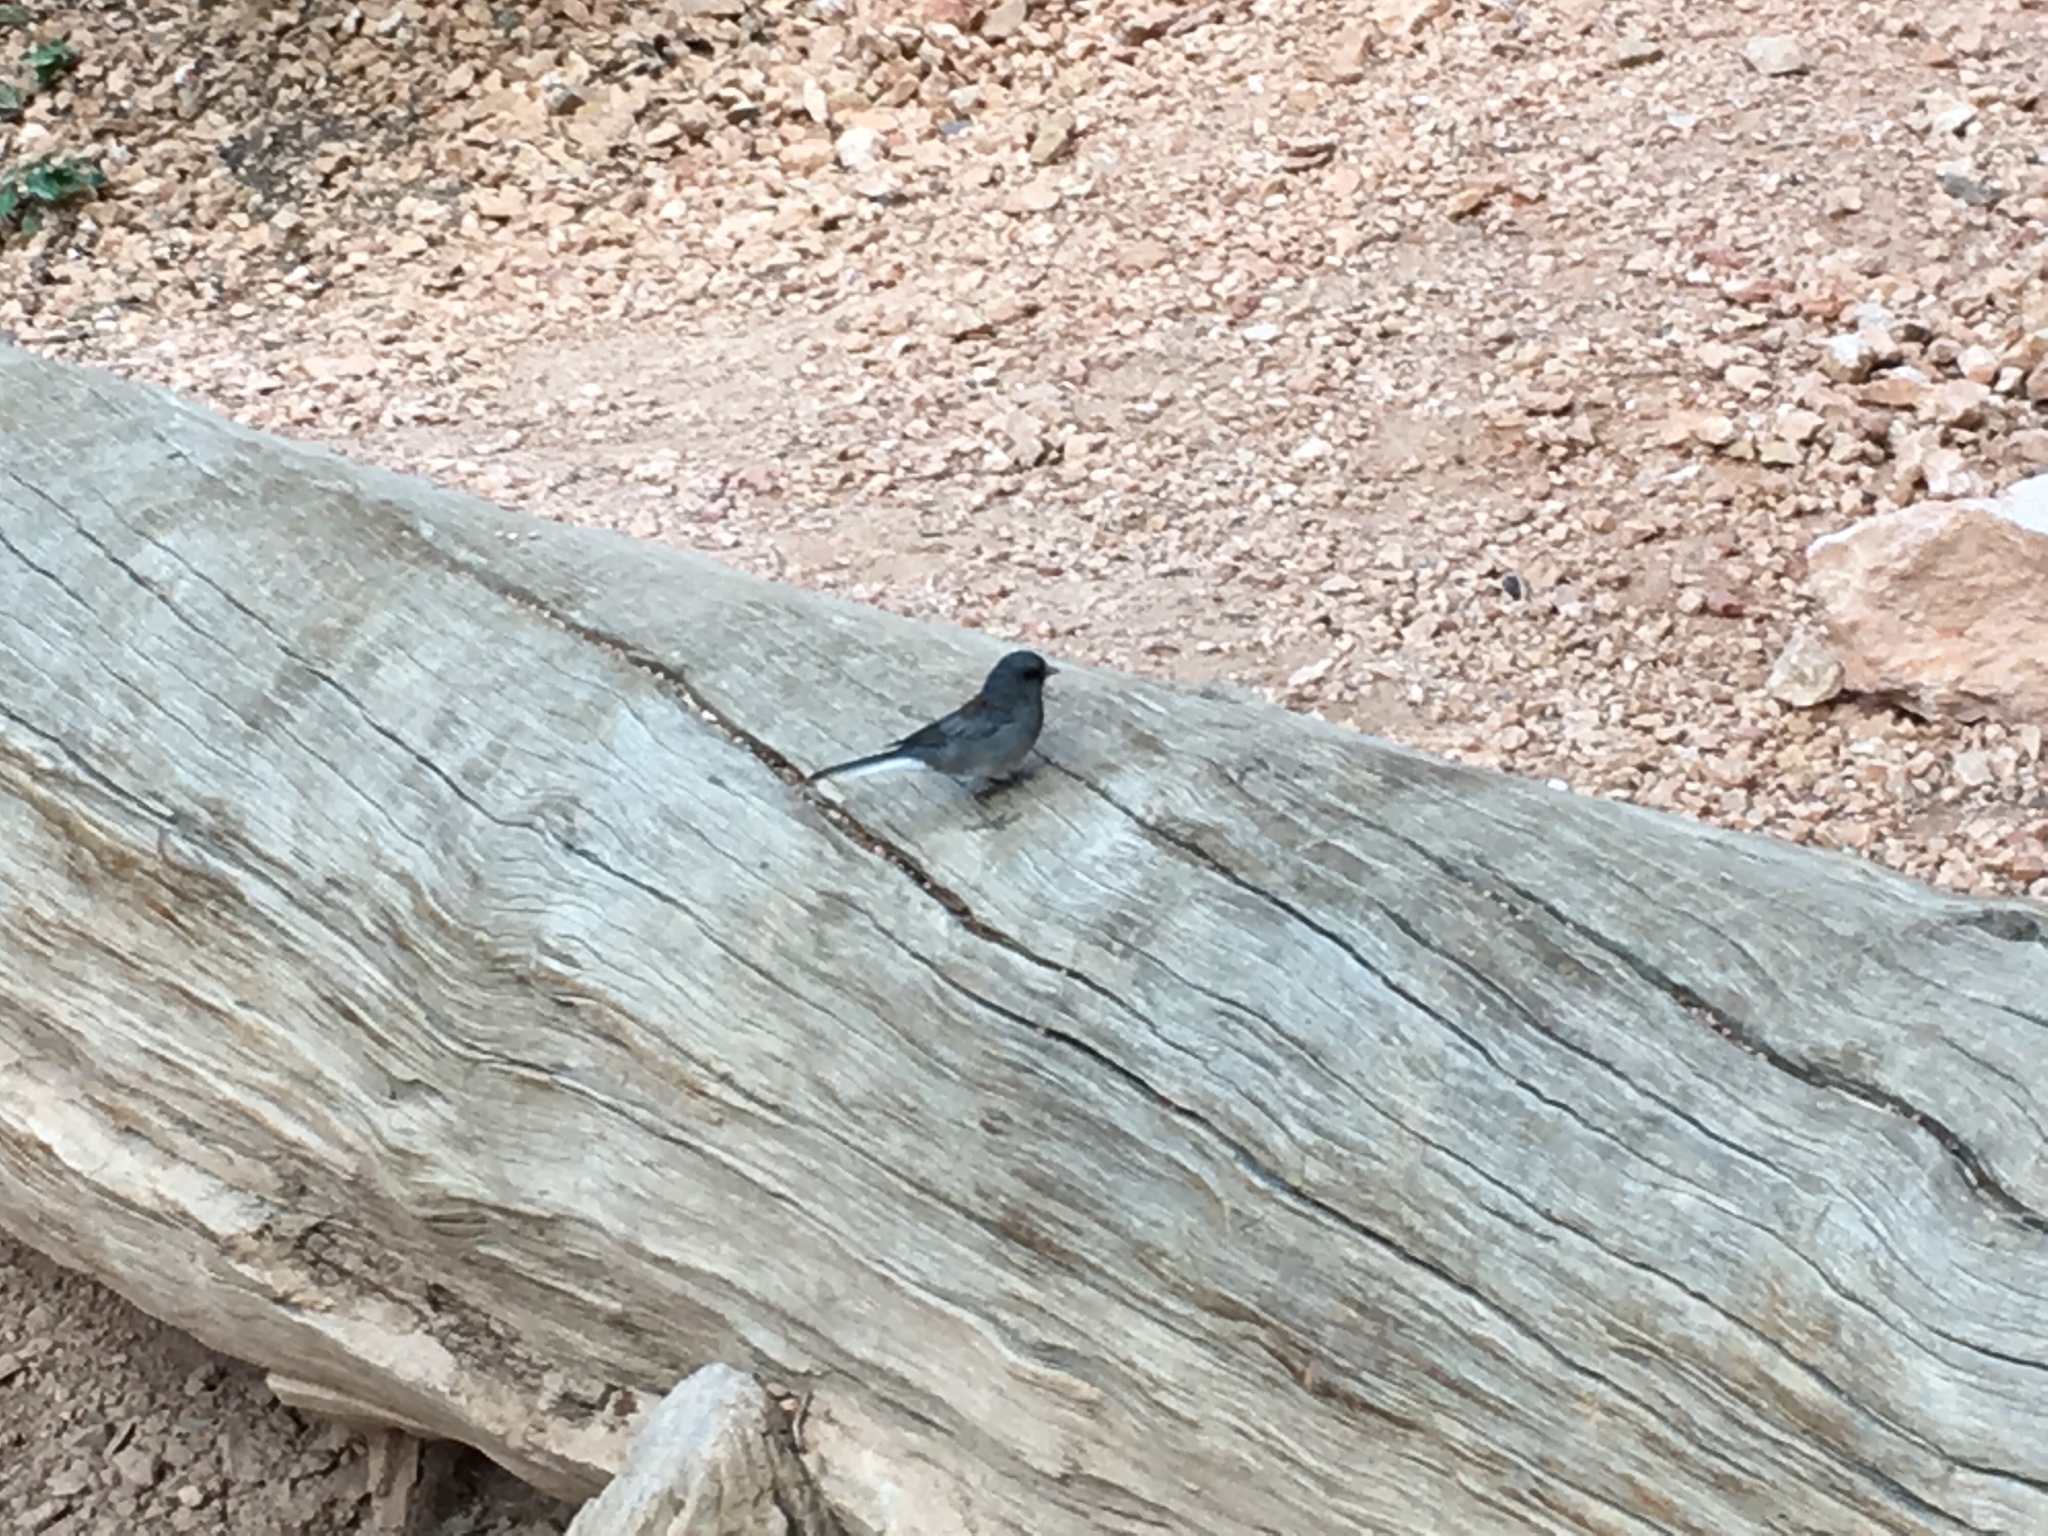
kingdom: Animalia
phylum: Chordata
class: Aves
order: Passeriformes
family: Passerellidae
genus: Junco
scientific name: Junco hyemalis
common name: Dark-eyed junco
